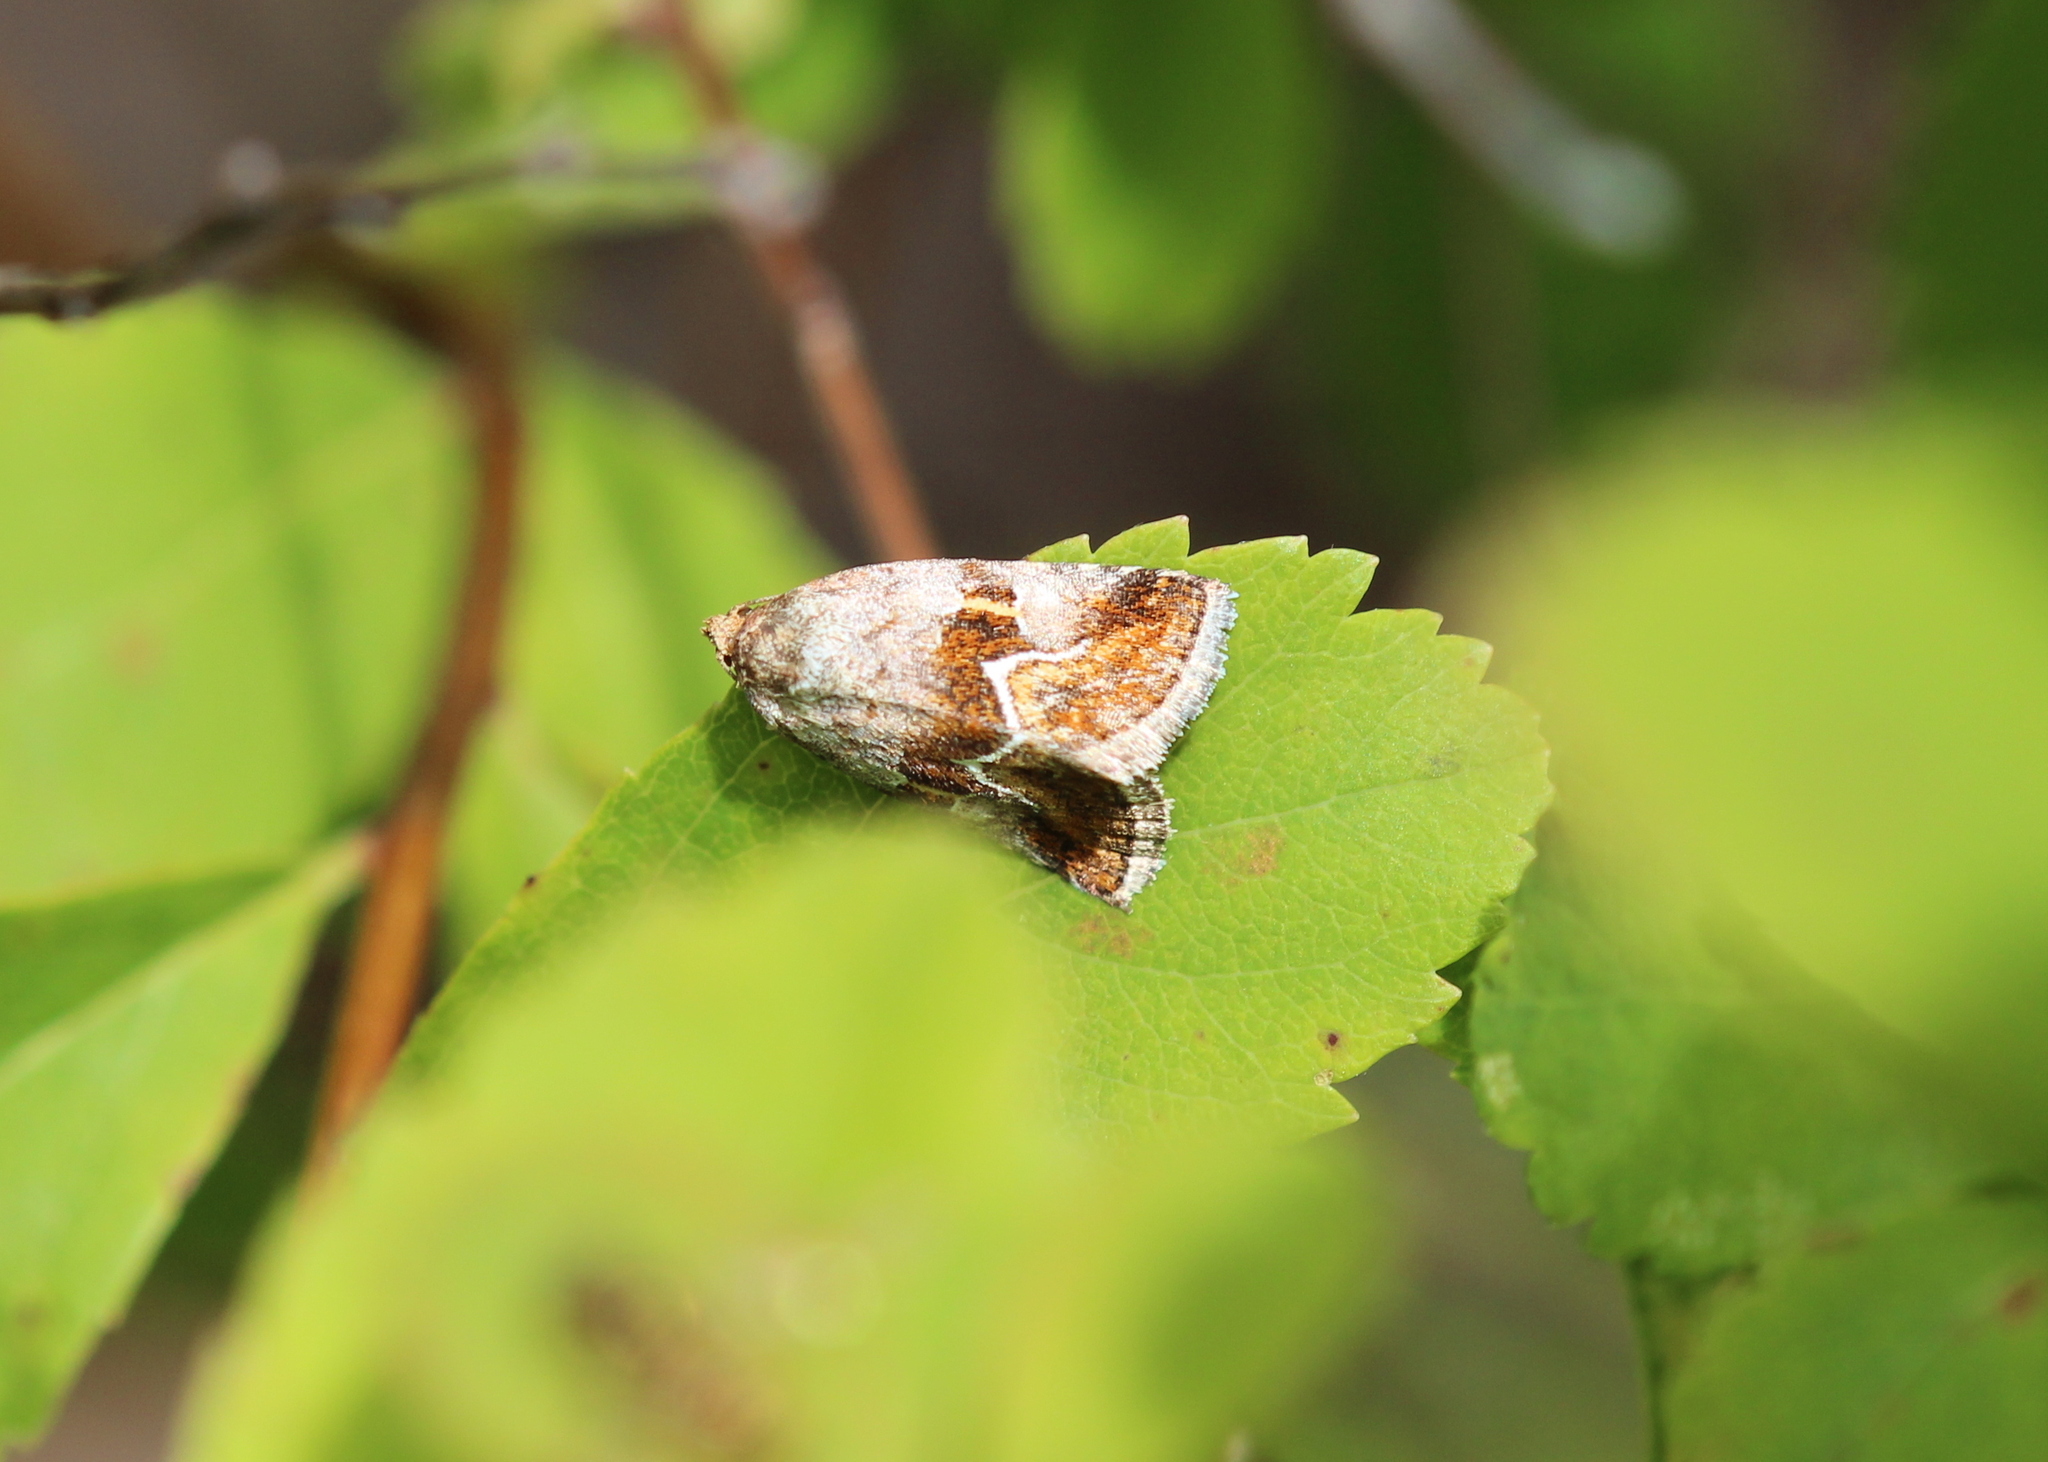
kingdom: Animalia
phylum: Arthropoda
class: Insecta
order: Lepidoptera
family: Noctuidae
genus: Deltote
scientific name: Deltote bellicula
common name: Bog glyph
